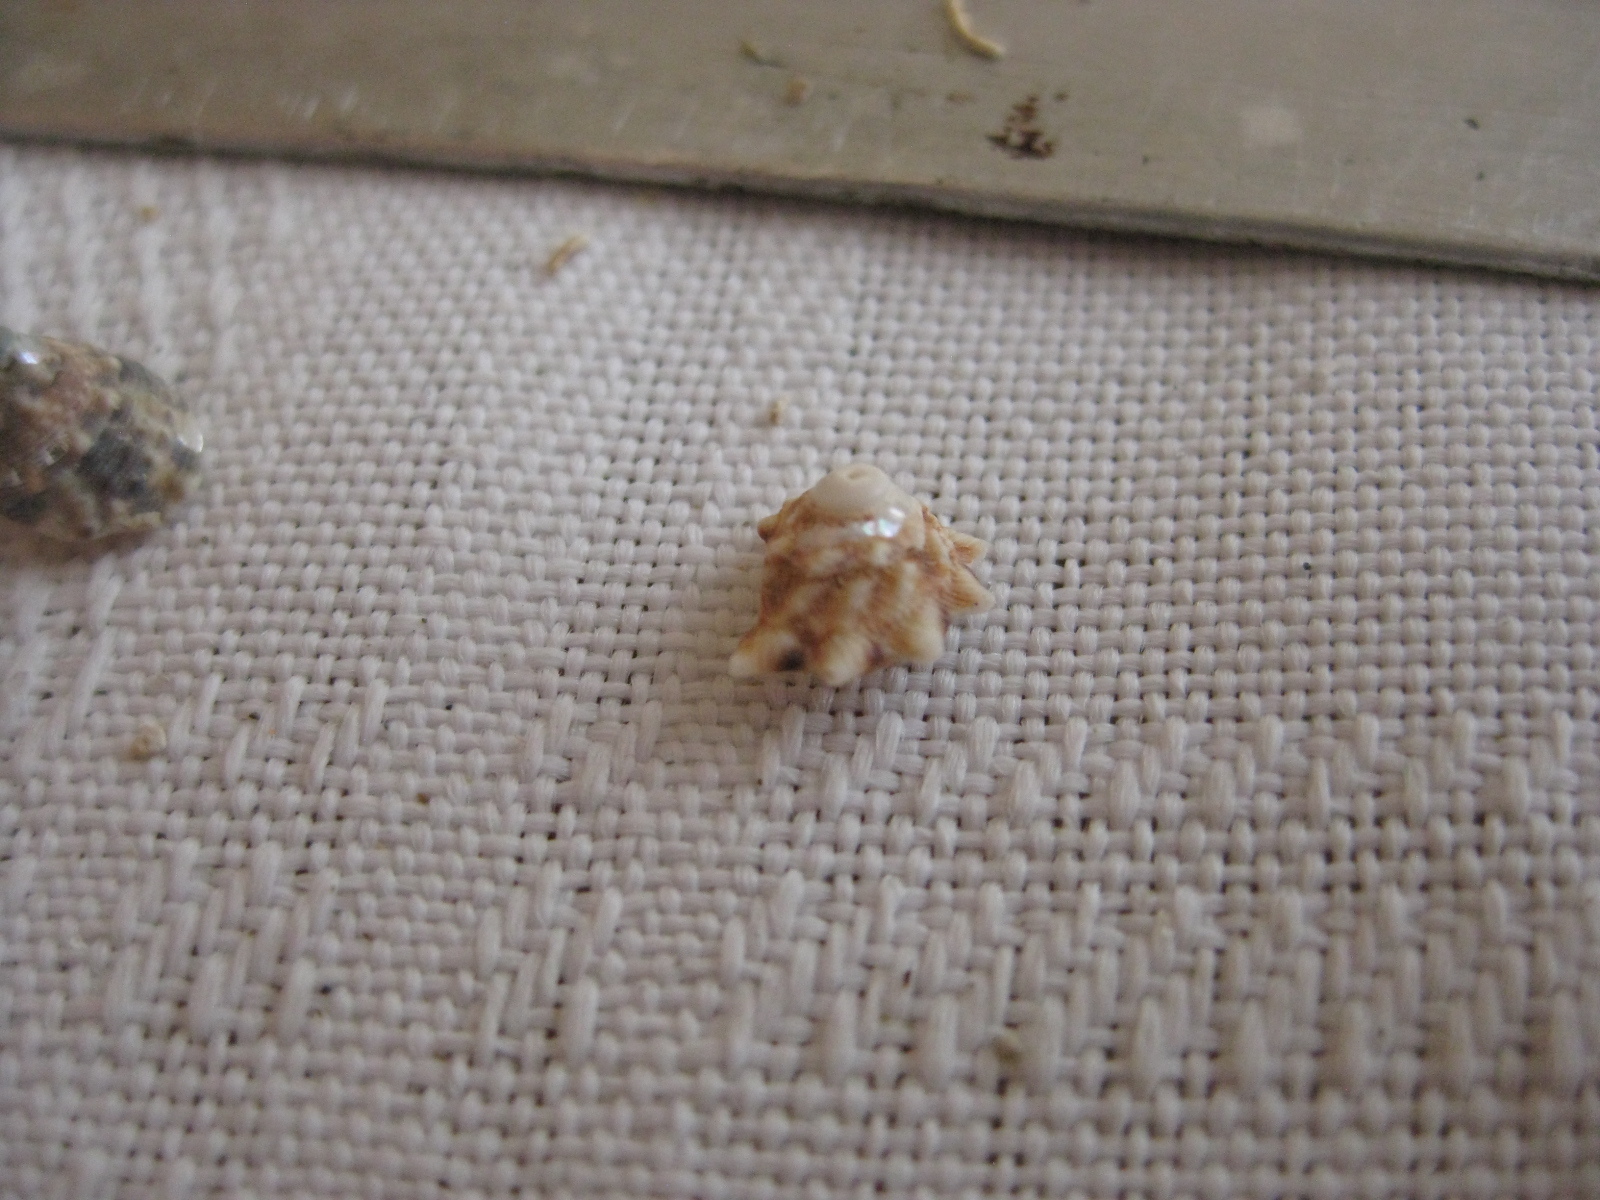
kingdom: Animalia
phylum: Mollusca
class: Gastropoda
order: Trochida
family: Turbinidae
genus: Cookia
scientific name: Cookia sulcata
